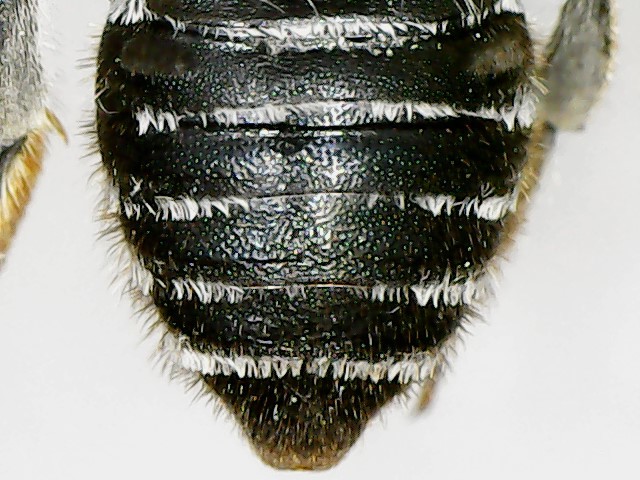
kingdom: Animalia
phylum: Arthropoda
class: Insecta
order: Hymenoptera
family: Megachilidae
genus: Megachile
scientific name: Megachile rotundata
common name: Alfalfa leafcutting bee
